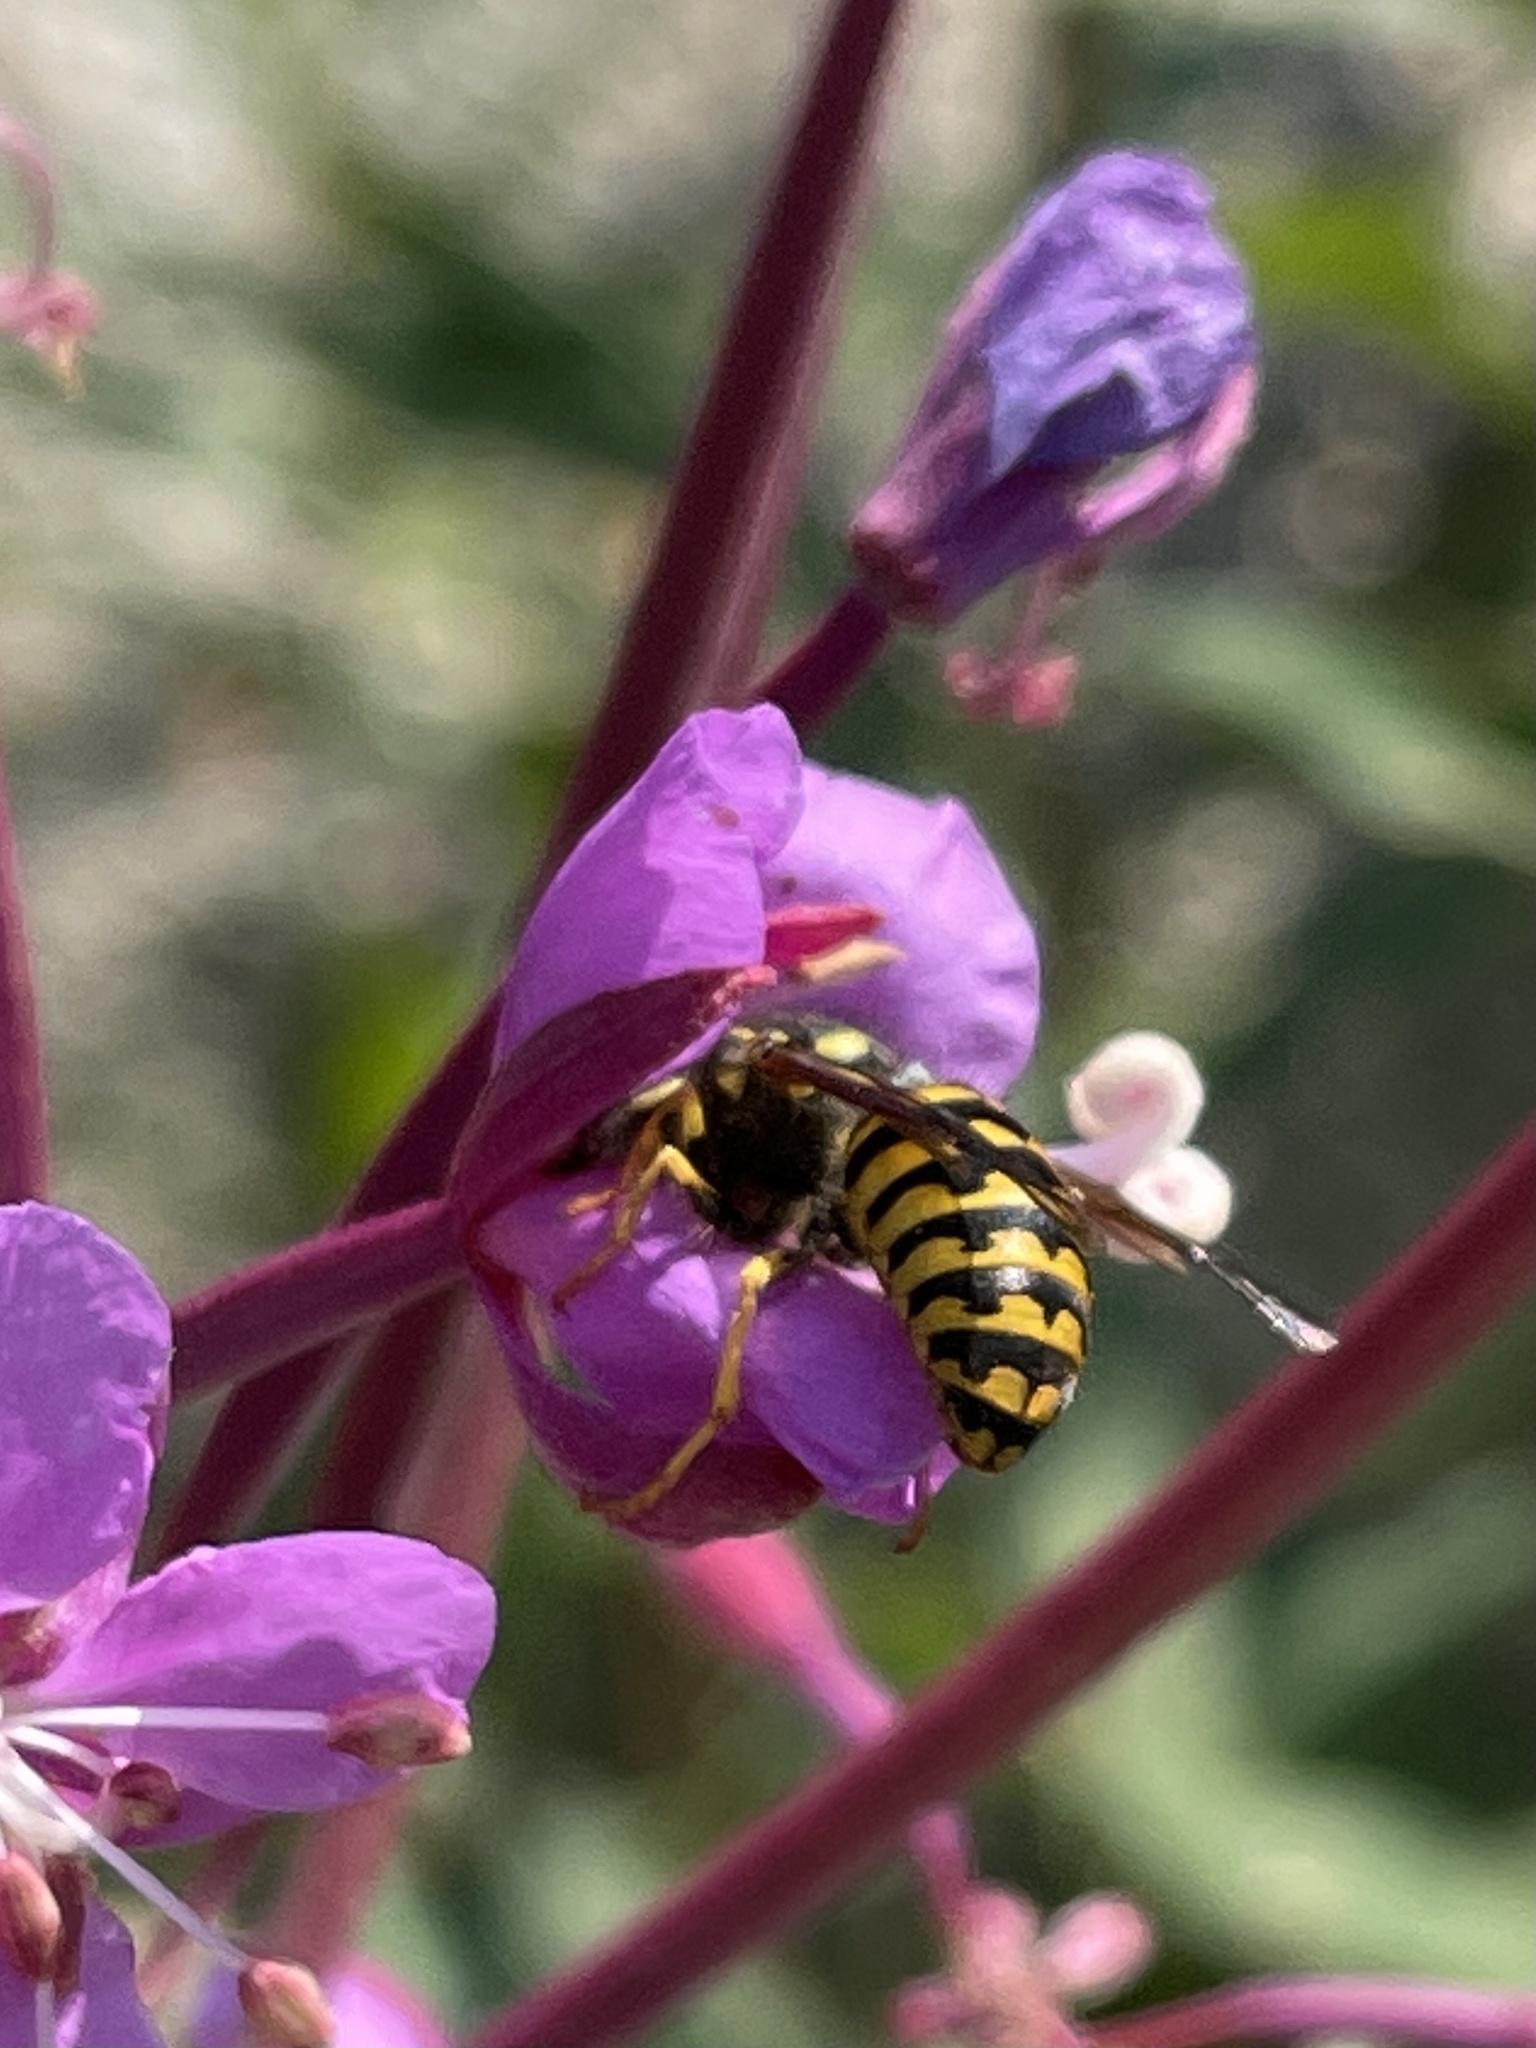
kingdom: Animalia
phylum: Arthropoda
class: Insecta
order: Hymenoptera
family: Vespidae
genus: Dolichovespula
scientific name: Dolichovespula arenaria
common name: Aerial yellowjacket
